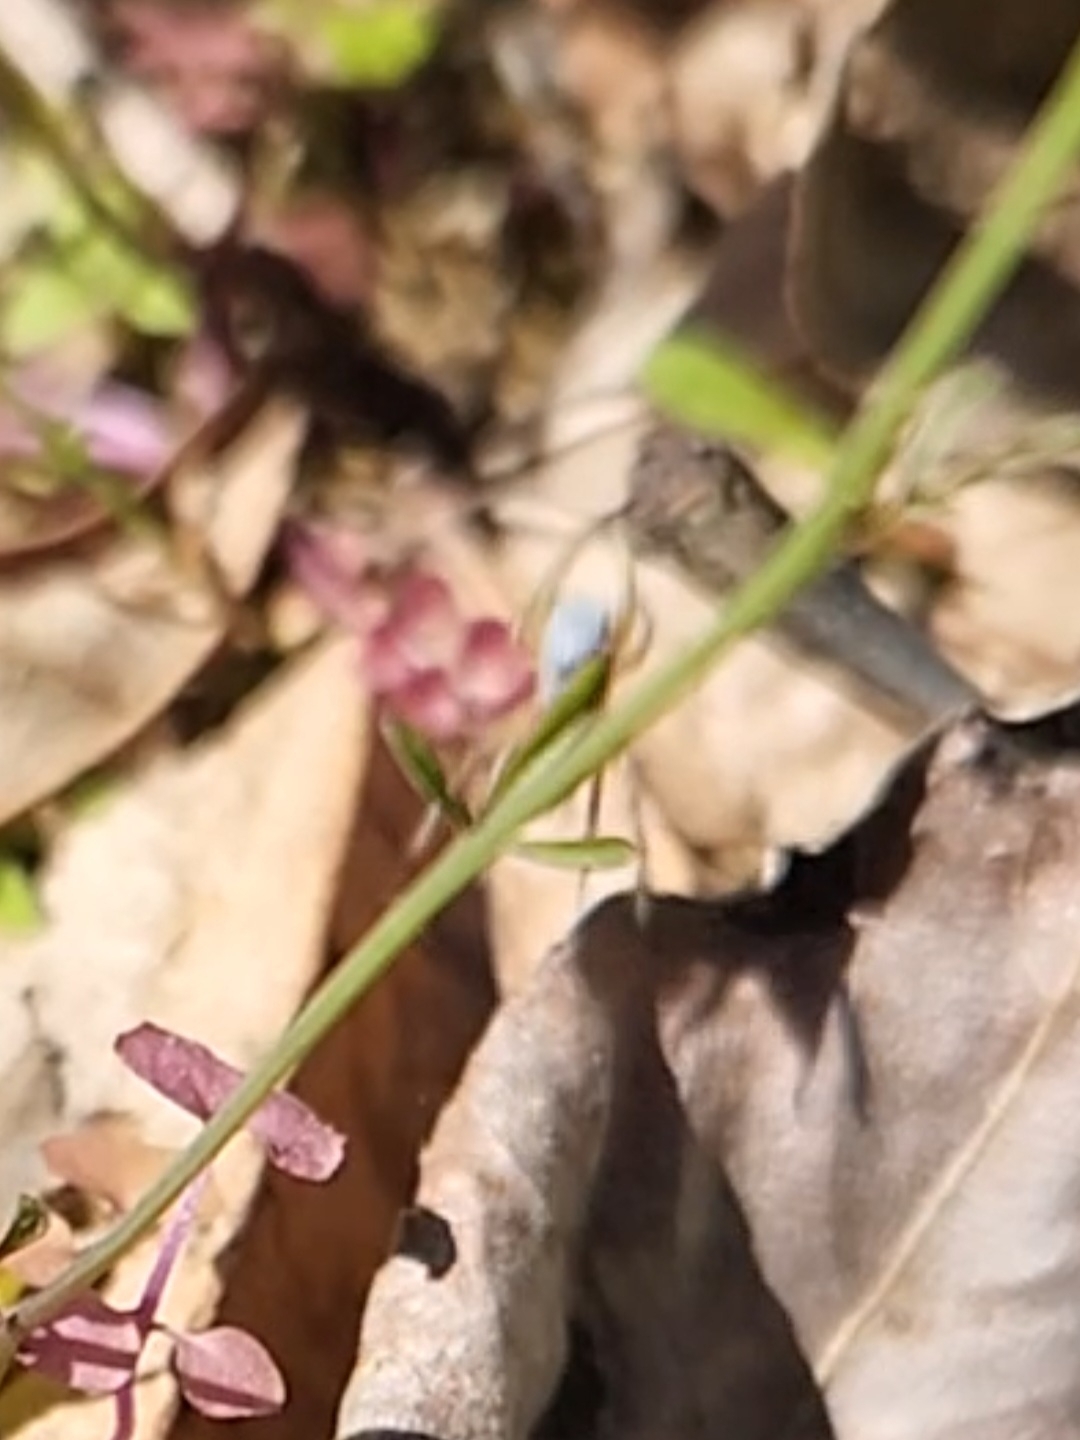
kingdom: Animalia
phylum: Arthropoda
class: Arachnida
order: Araneae
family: Salticidae
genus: Habronattus
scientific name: Habronattus decorus
